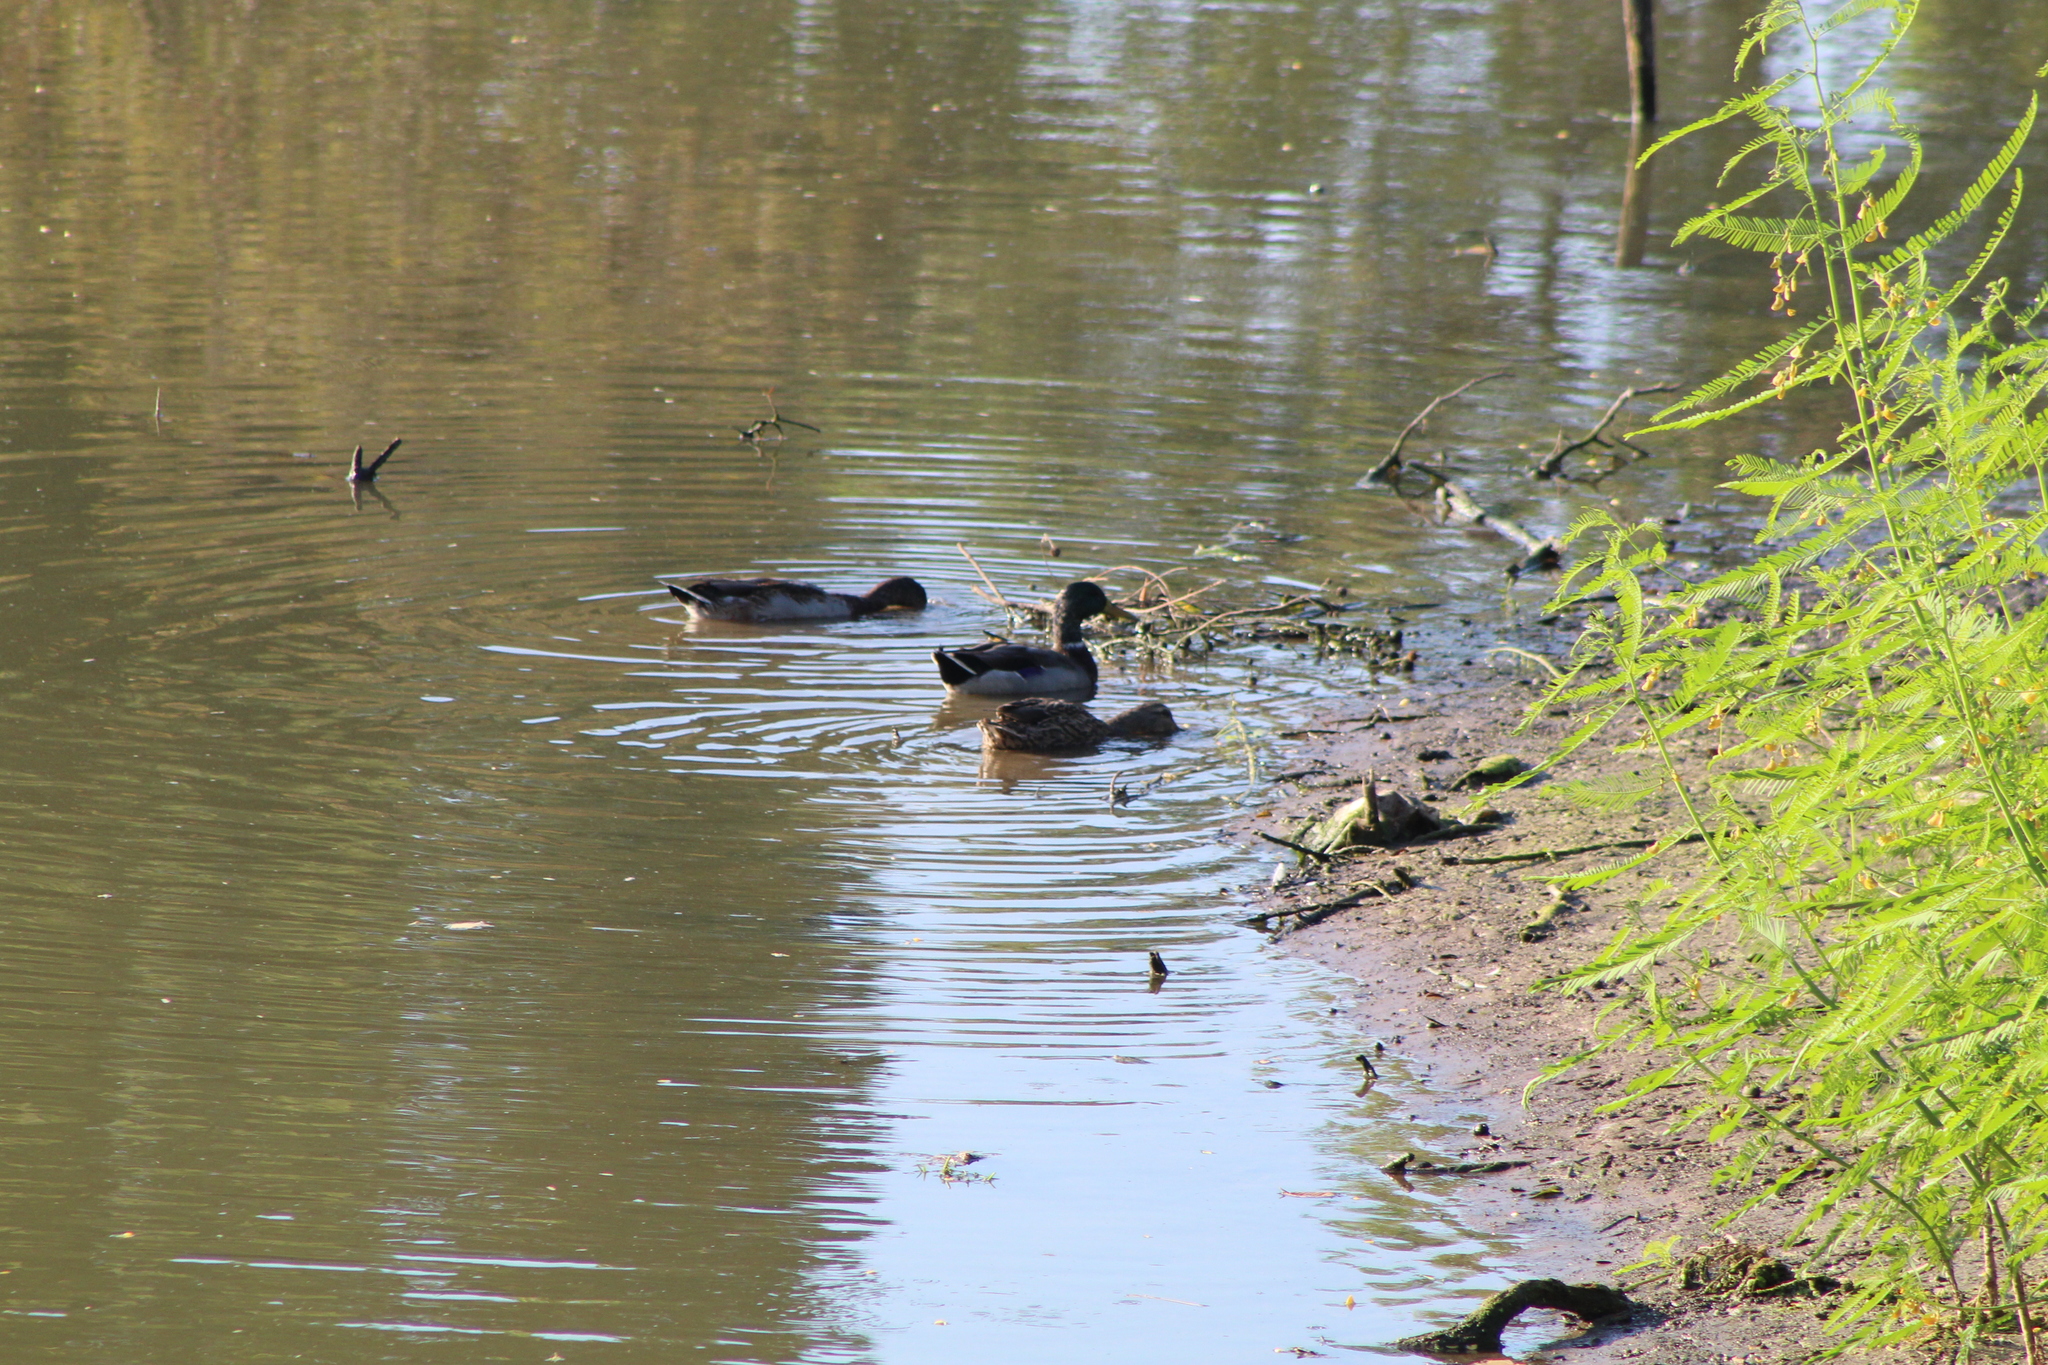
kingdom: Animalia
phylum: Chordata
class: Aves
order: Anseriformes
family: Anatidae
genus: Anas
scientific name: Anas platyrhynchos
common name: Mallard
